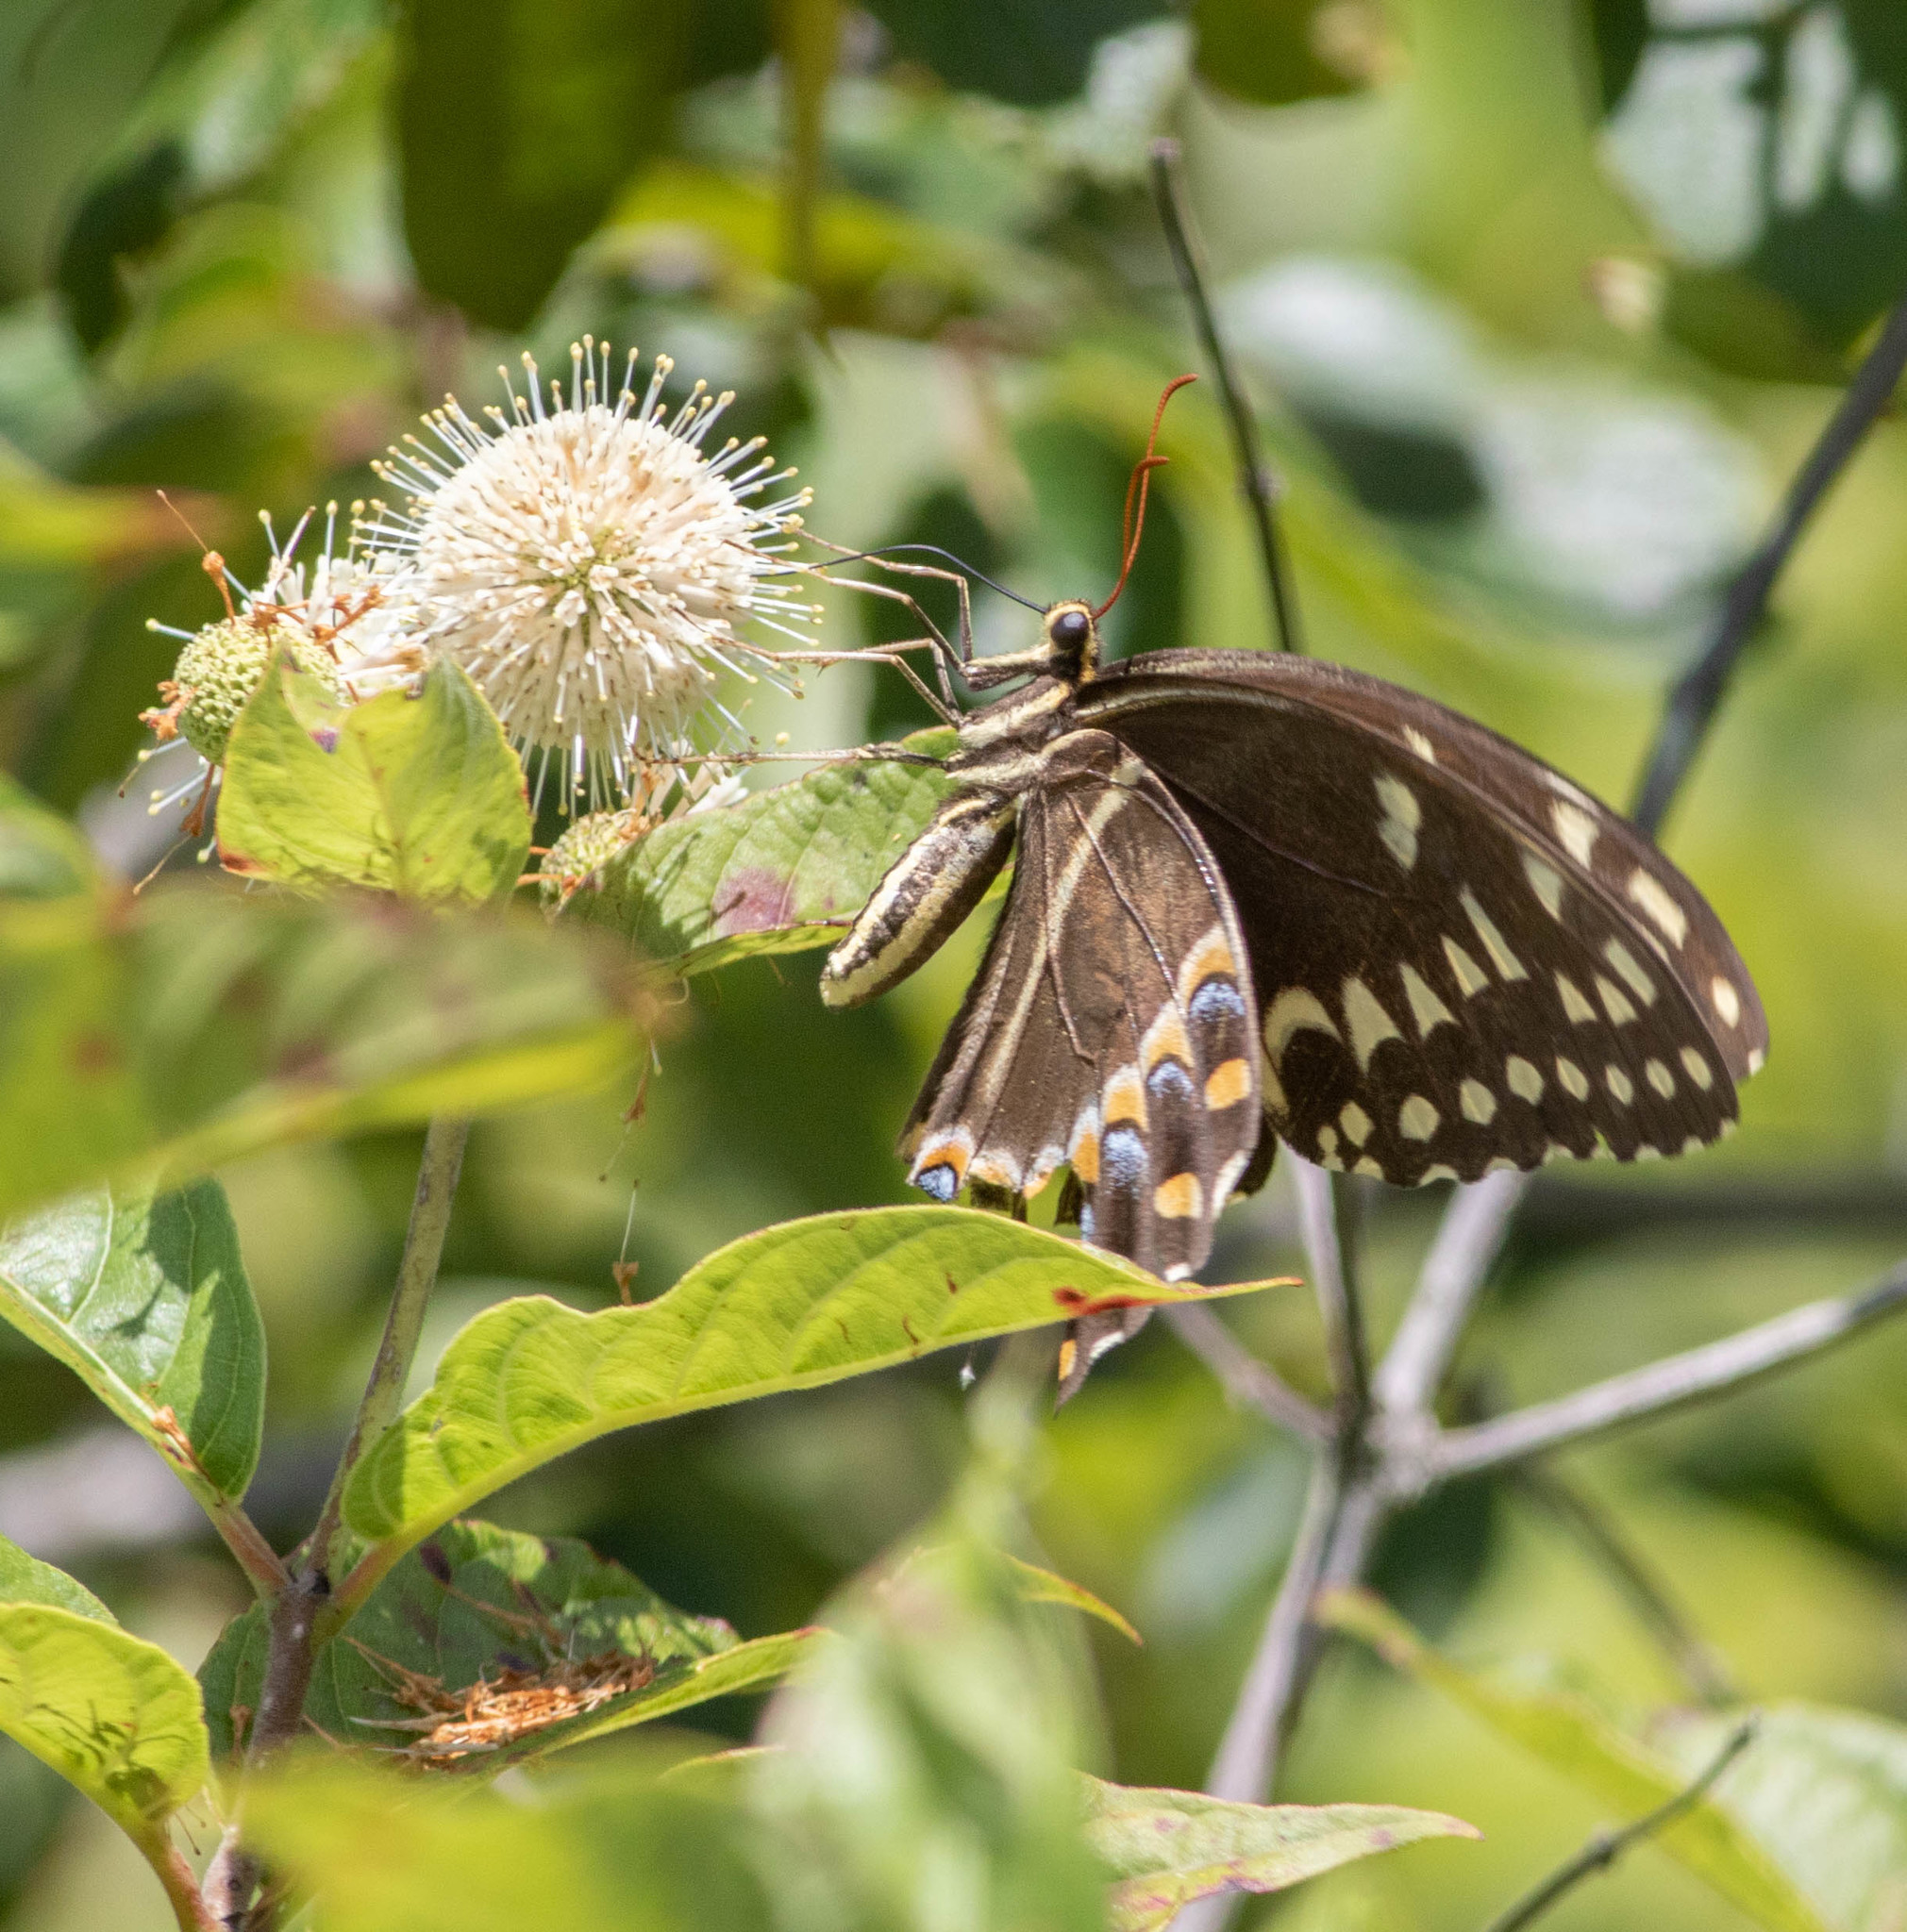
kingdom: Animalia
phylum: Arthropoda
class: Insecta
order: Lepidoptera
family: Papilionidae
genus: Papilio
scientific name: Papilio palamedes
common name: Palamedes swallowtail
